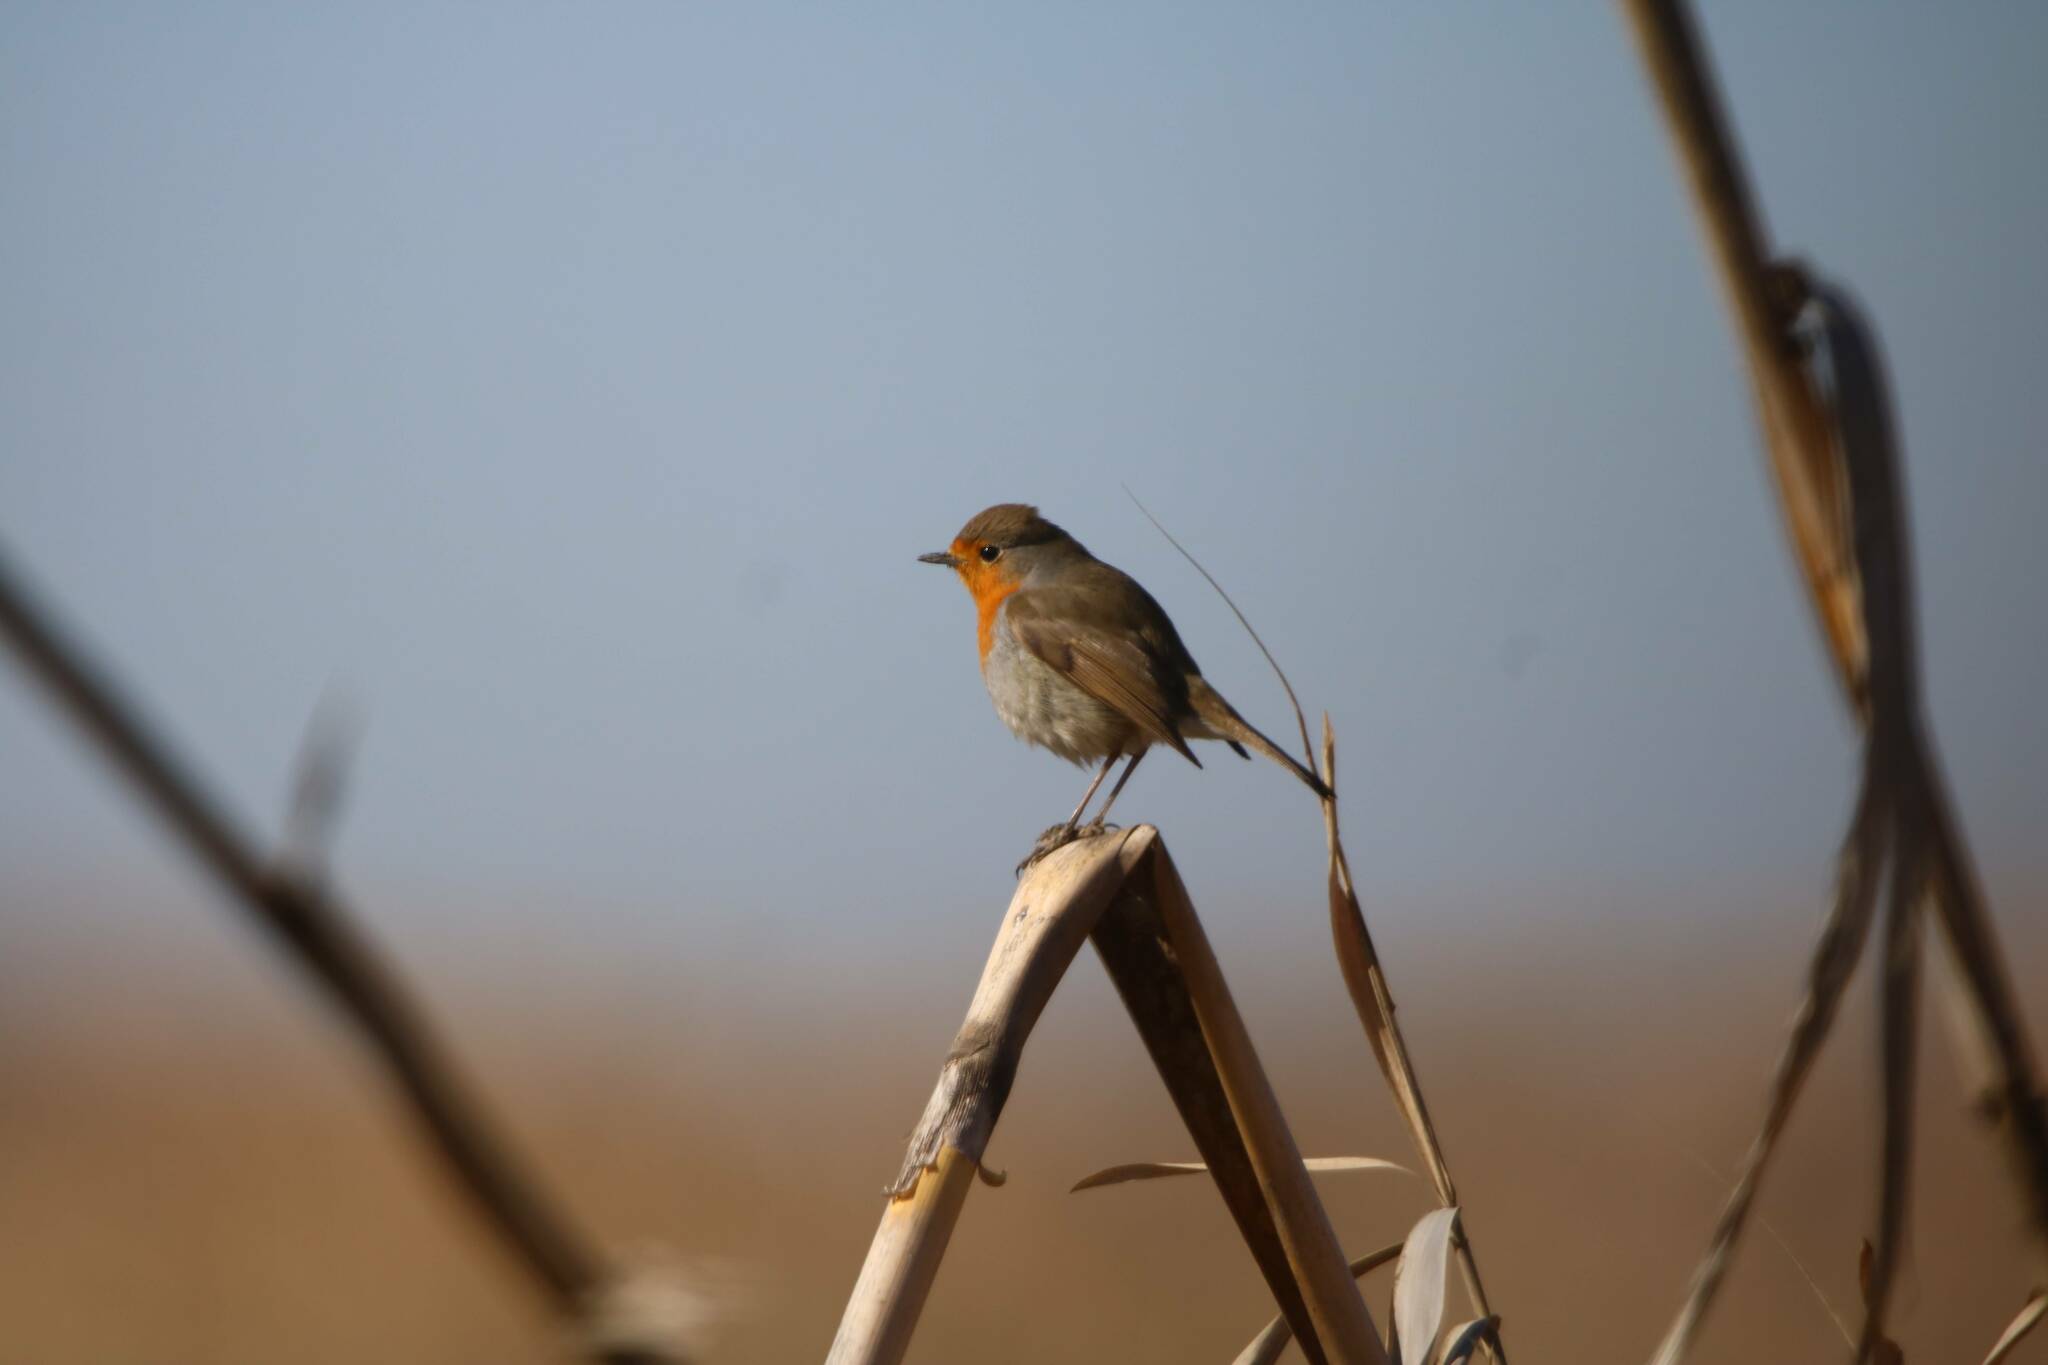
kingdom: Animalia
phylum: Chordata
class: Aves
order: Passeriformes
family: Muscicapidae
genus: Erithacus
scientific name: Erithacus rubecula
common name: European robin
